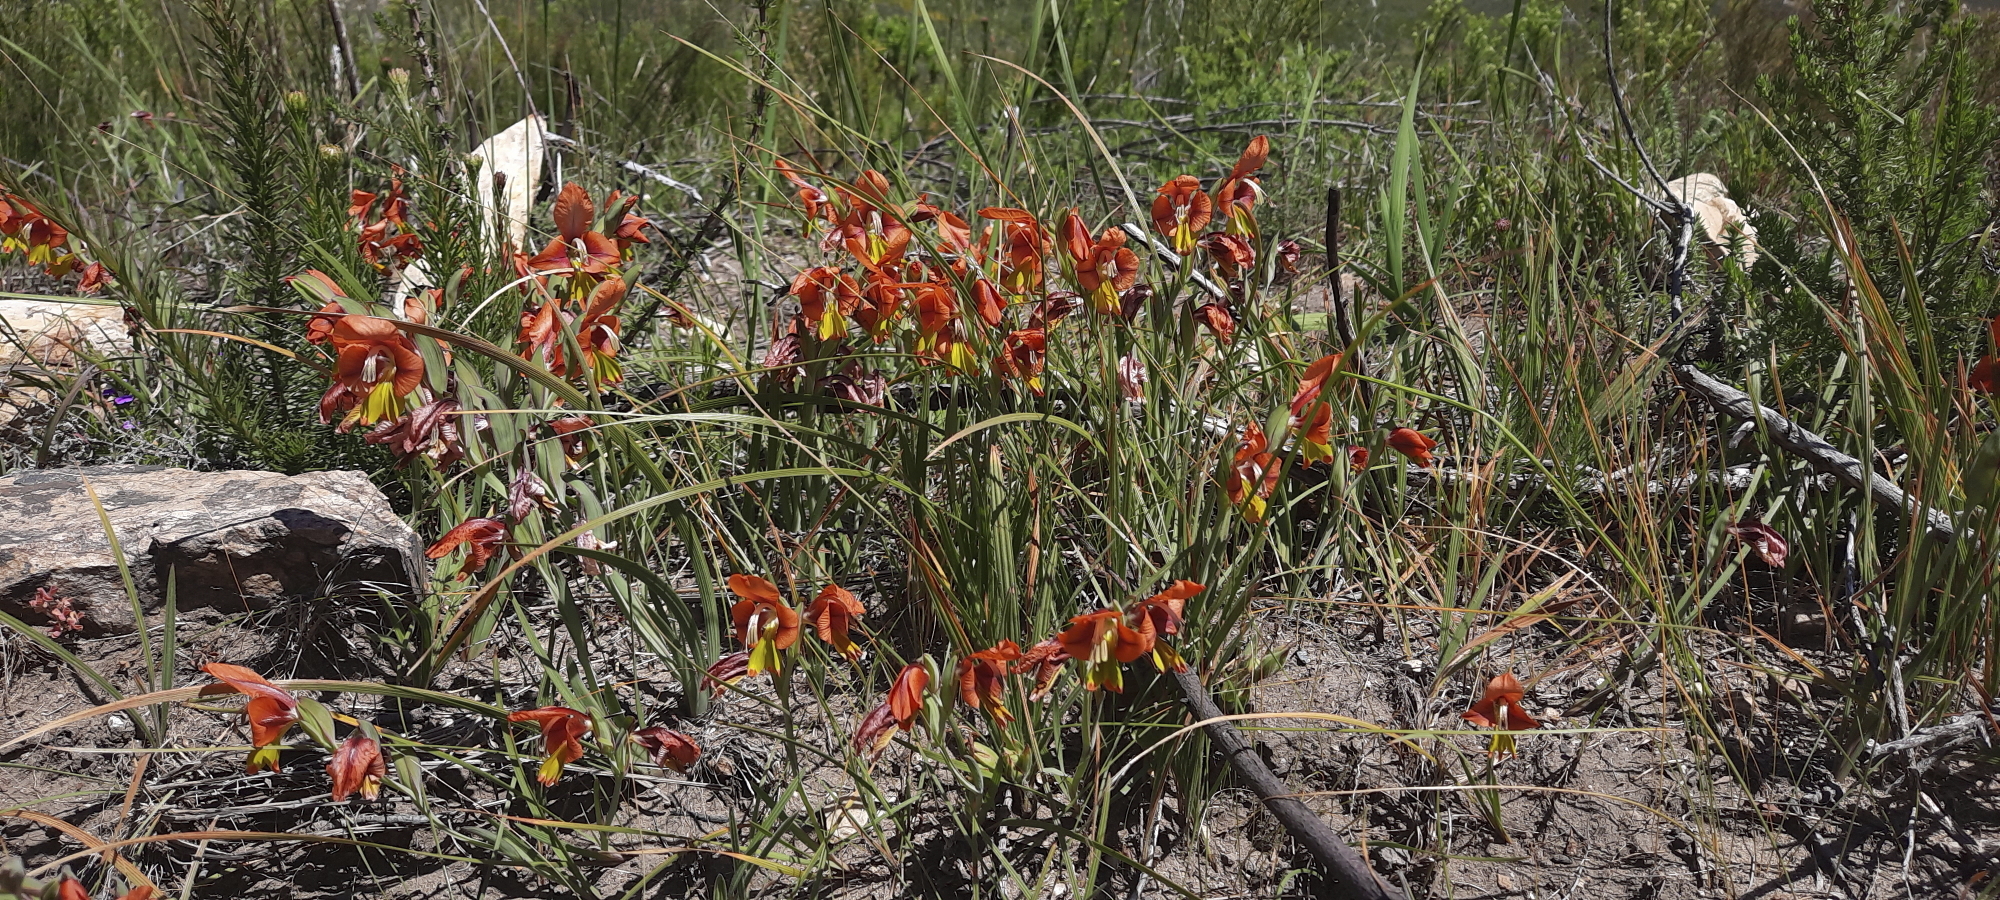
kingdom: Plantae
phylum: Tracheophyta
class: Liliopsida
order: Asparagales
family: Iridaceae
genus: Gladiolus
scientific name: Gladiolus alatus
